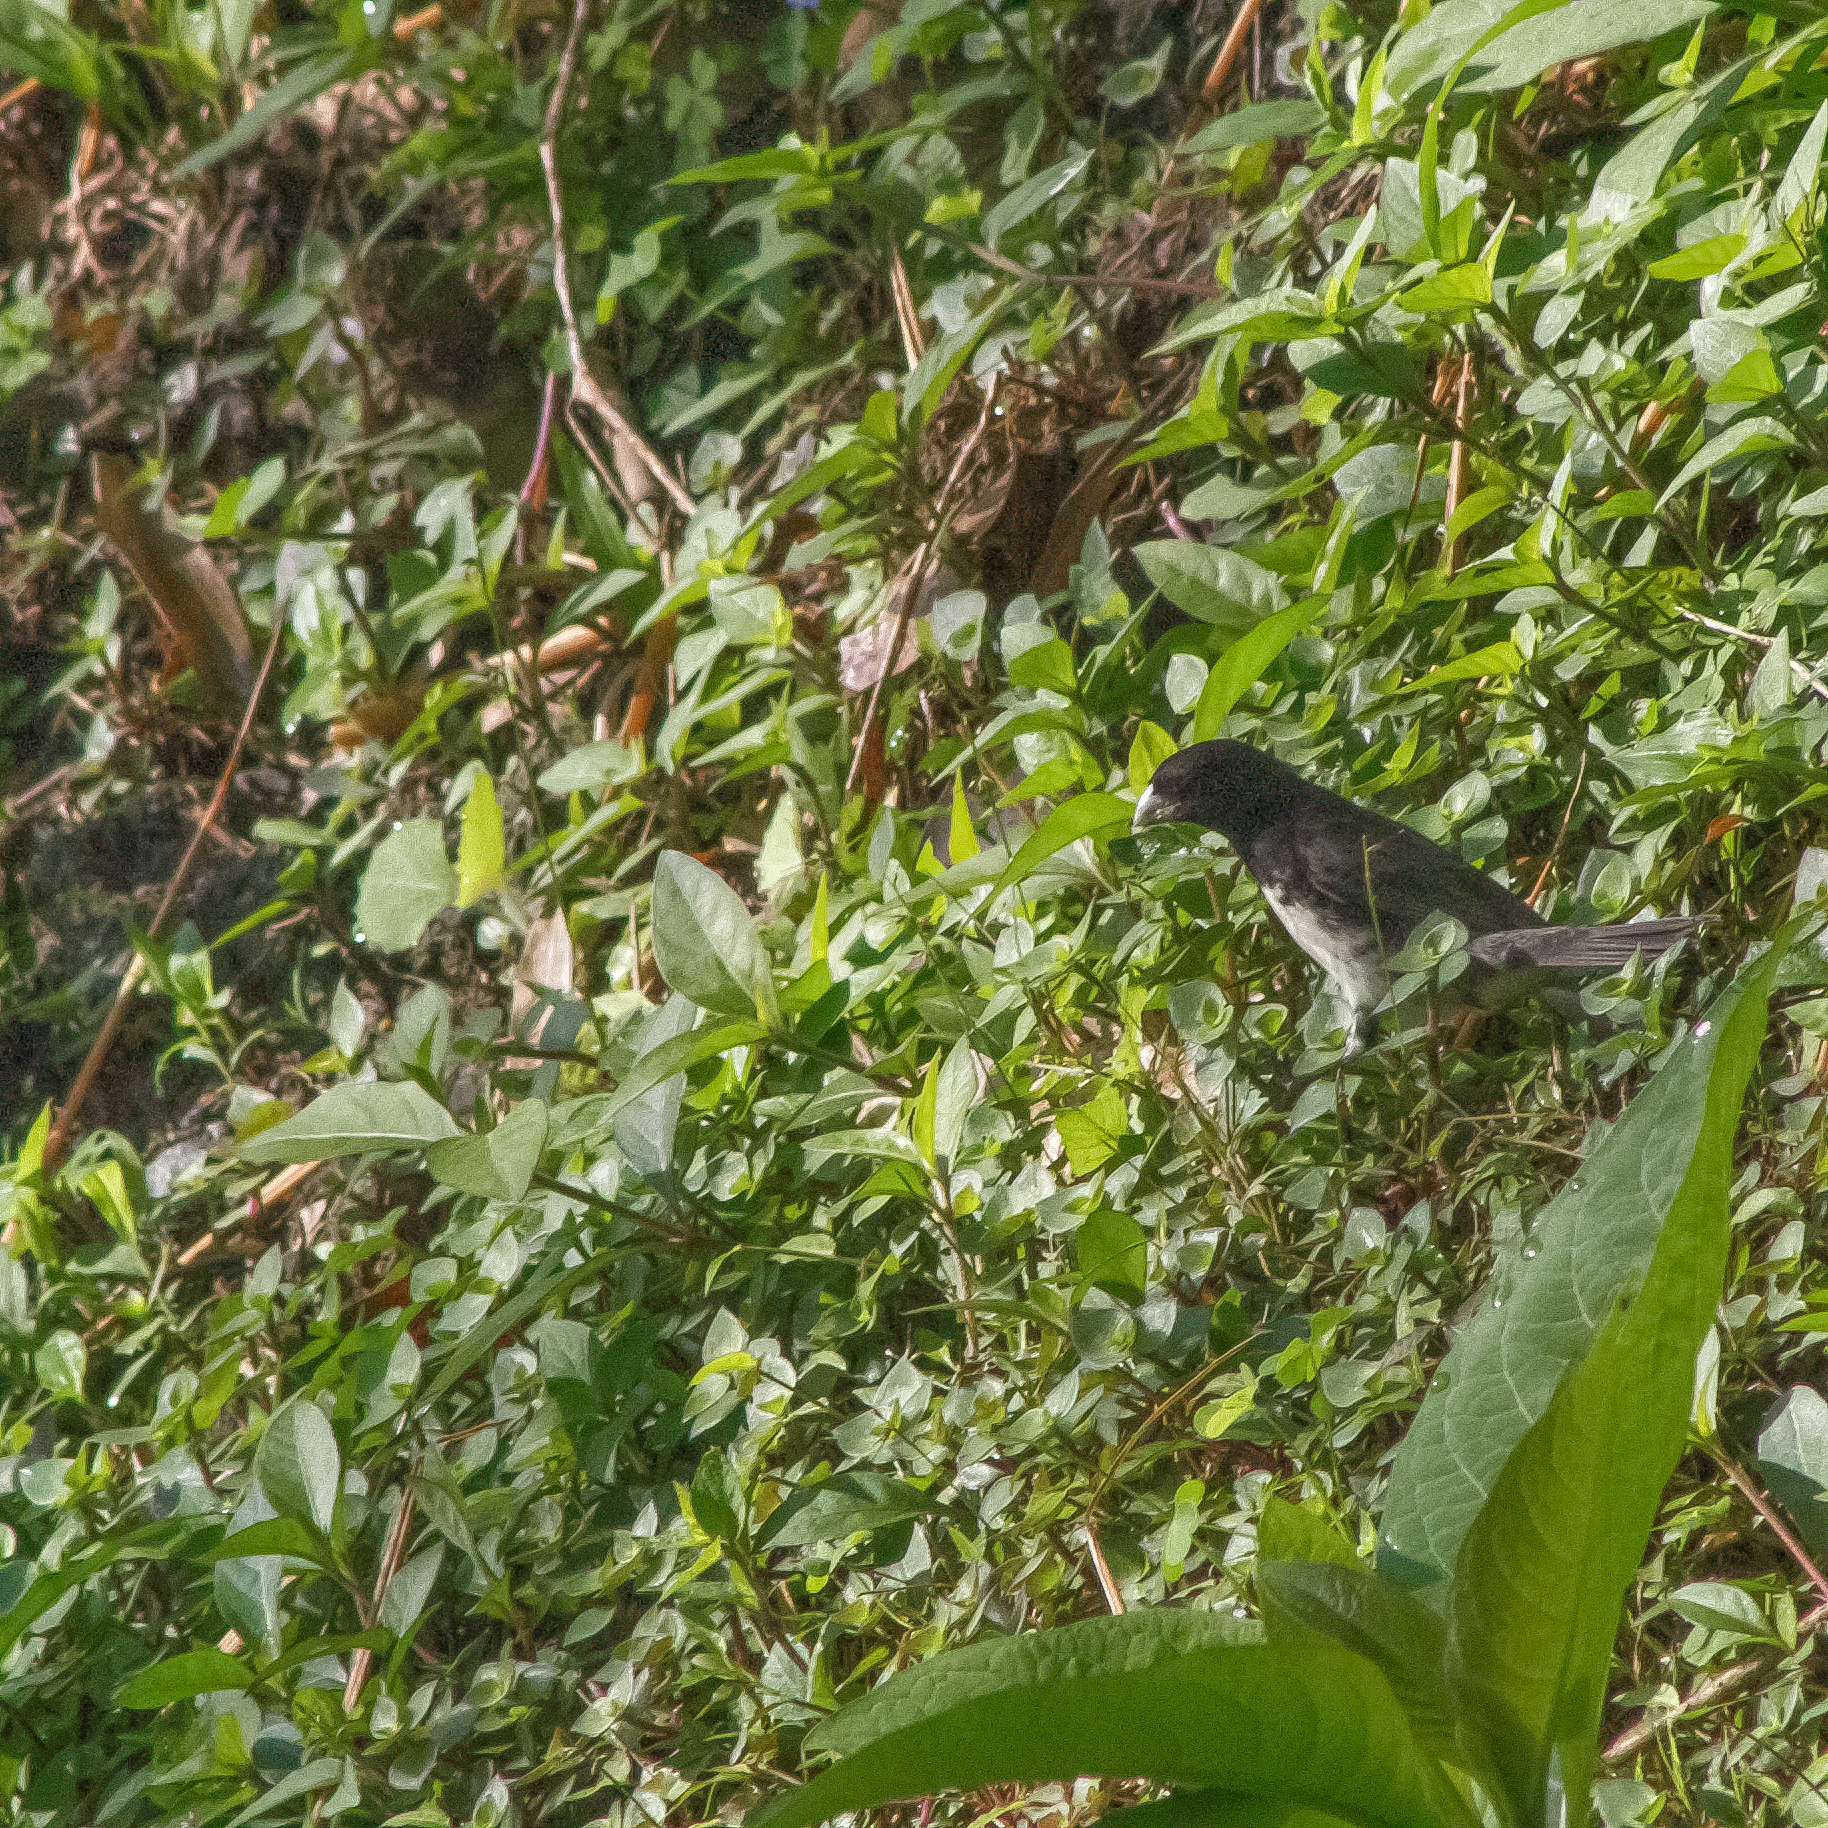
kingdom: Animalia
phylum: Chordata
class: Aves
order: Passeriformes
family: Thraupidae
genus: Sporophila
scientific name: Sporophila nigricollis
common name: Yellow-bellied seedeater
